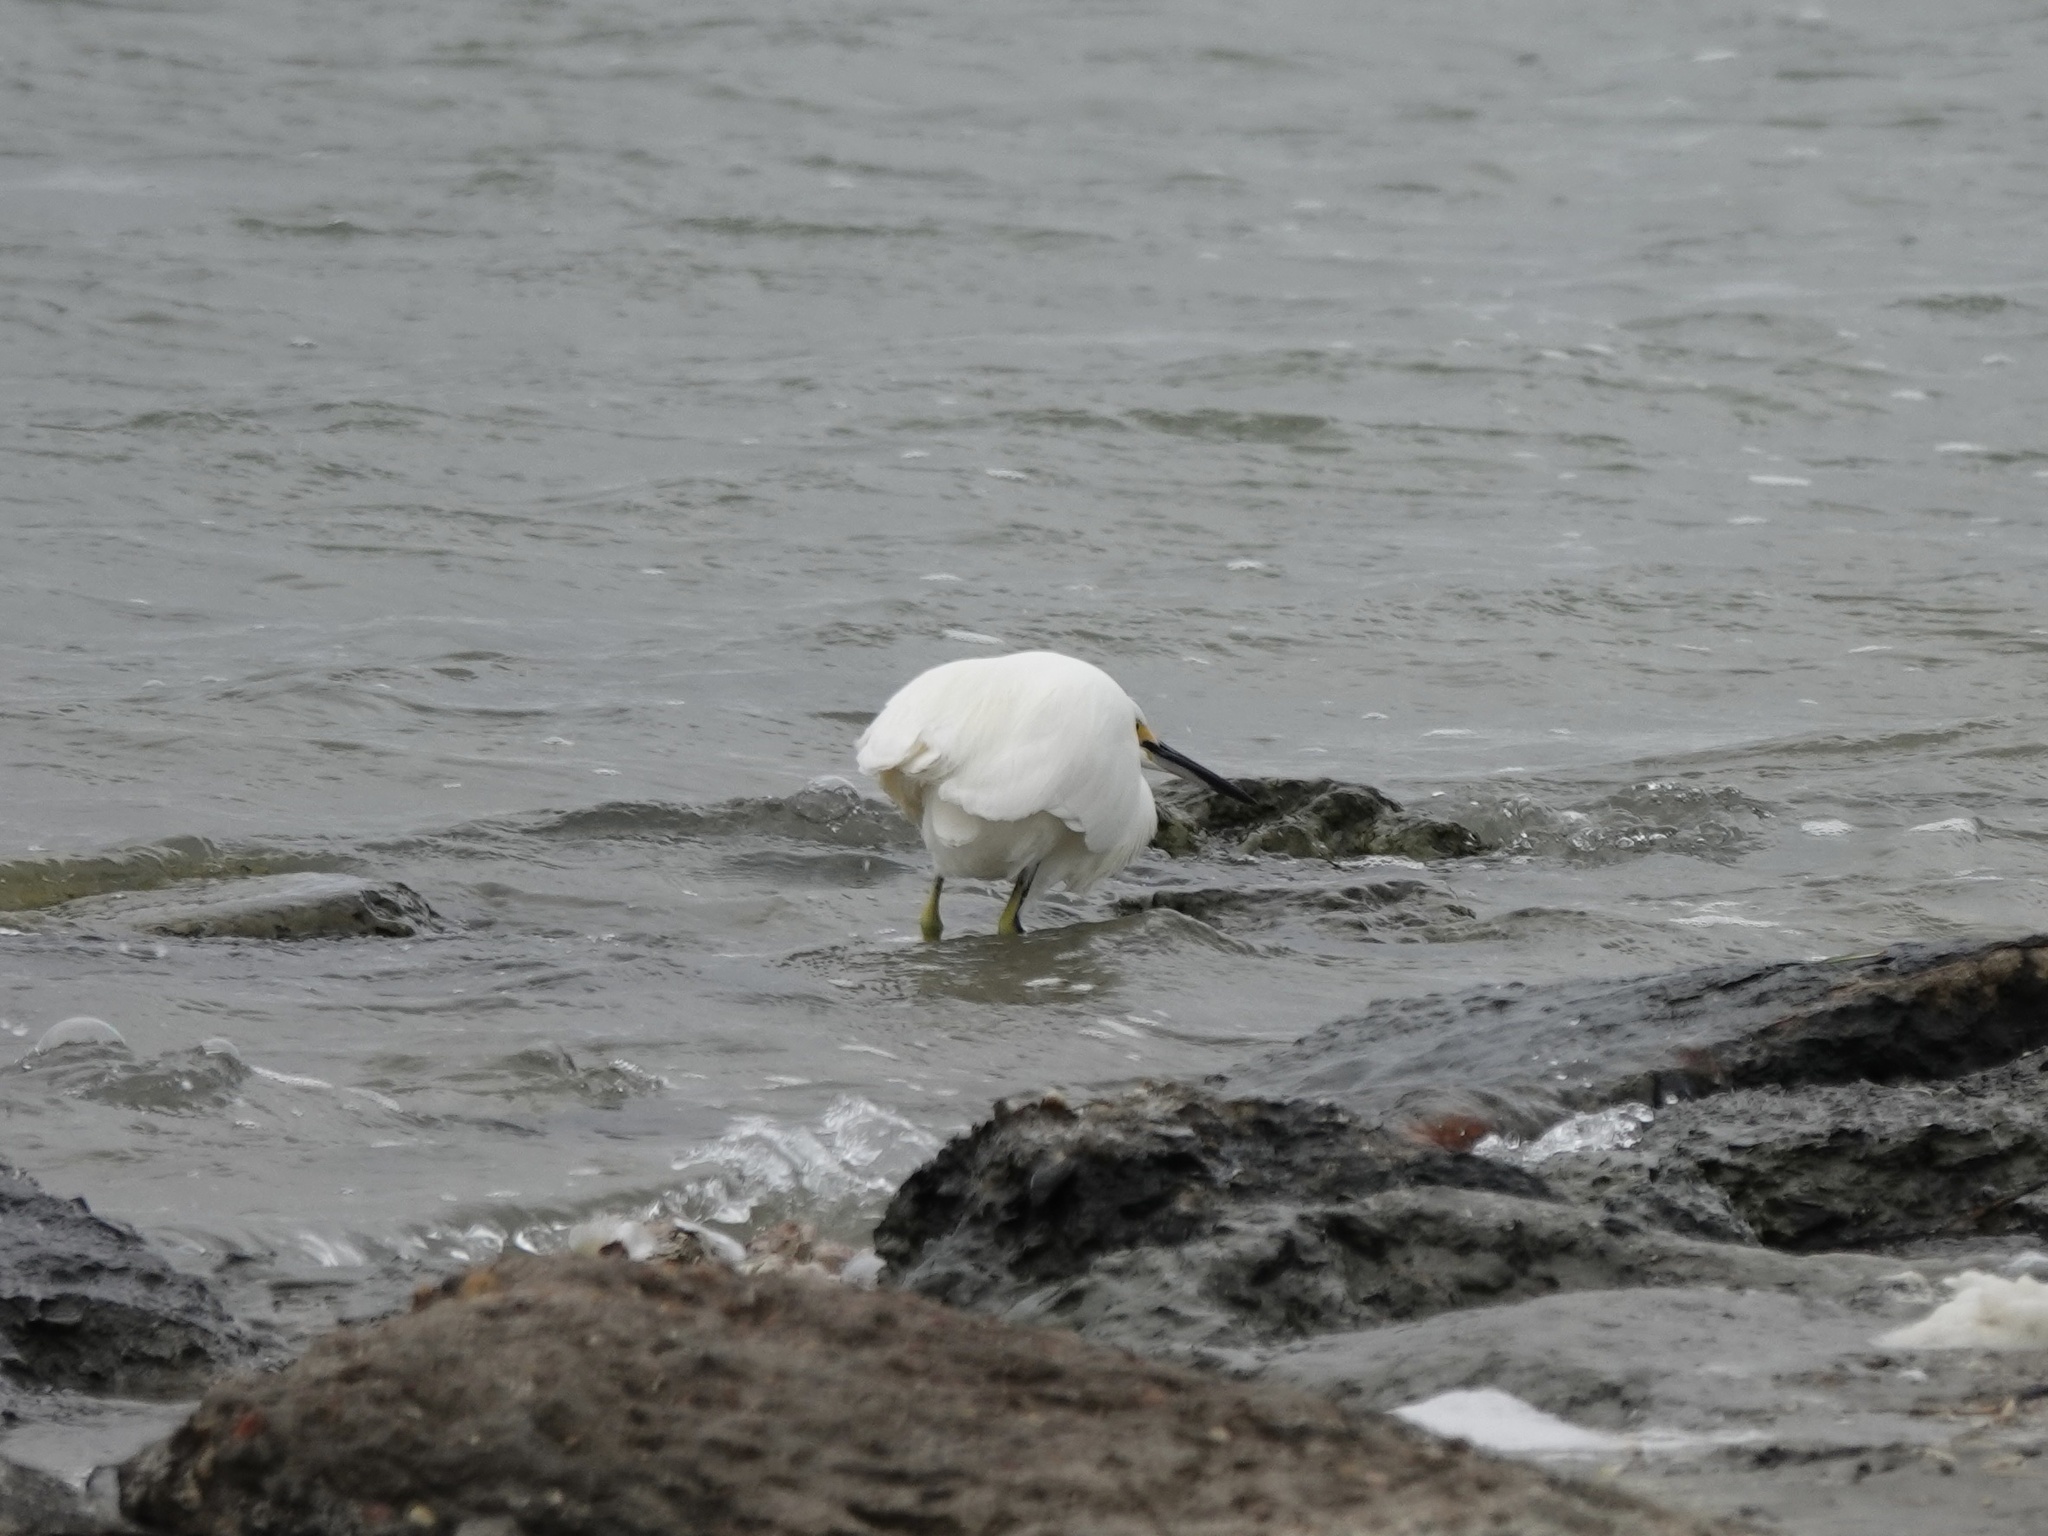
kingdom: Animalia
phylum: Chordata
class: Aves
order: Pelecaniformes
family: Ardeidae
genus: Egretta
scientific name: Egretta thula
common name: Snowy egret
